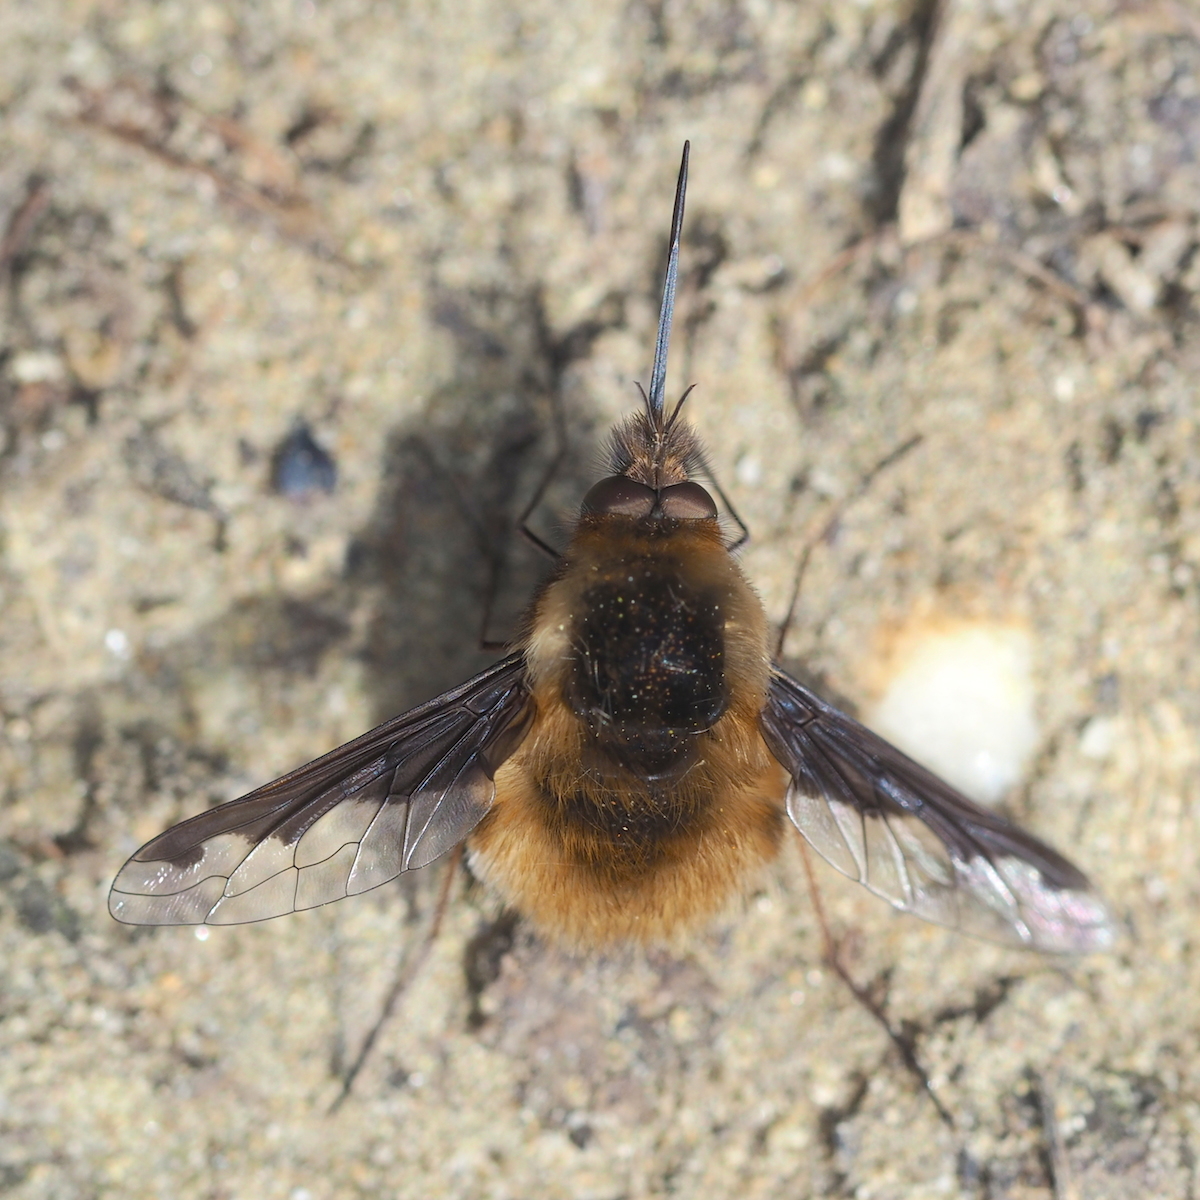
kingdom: Animalia
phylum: Arthropoda
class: Insecta
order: Diptera
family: Bombyliidae
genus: Bombylius
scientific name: Bombylius major
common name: Bee fly
